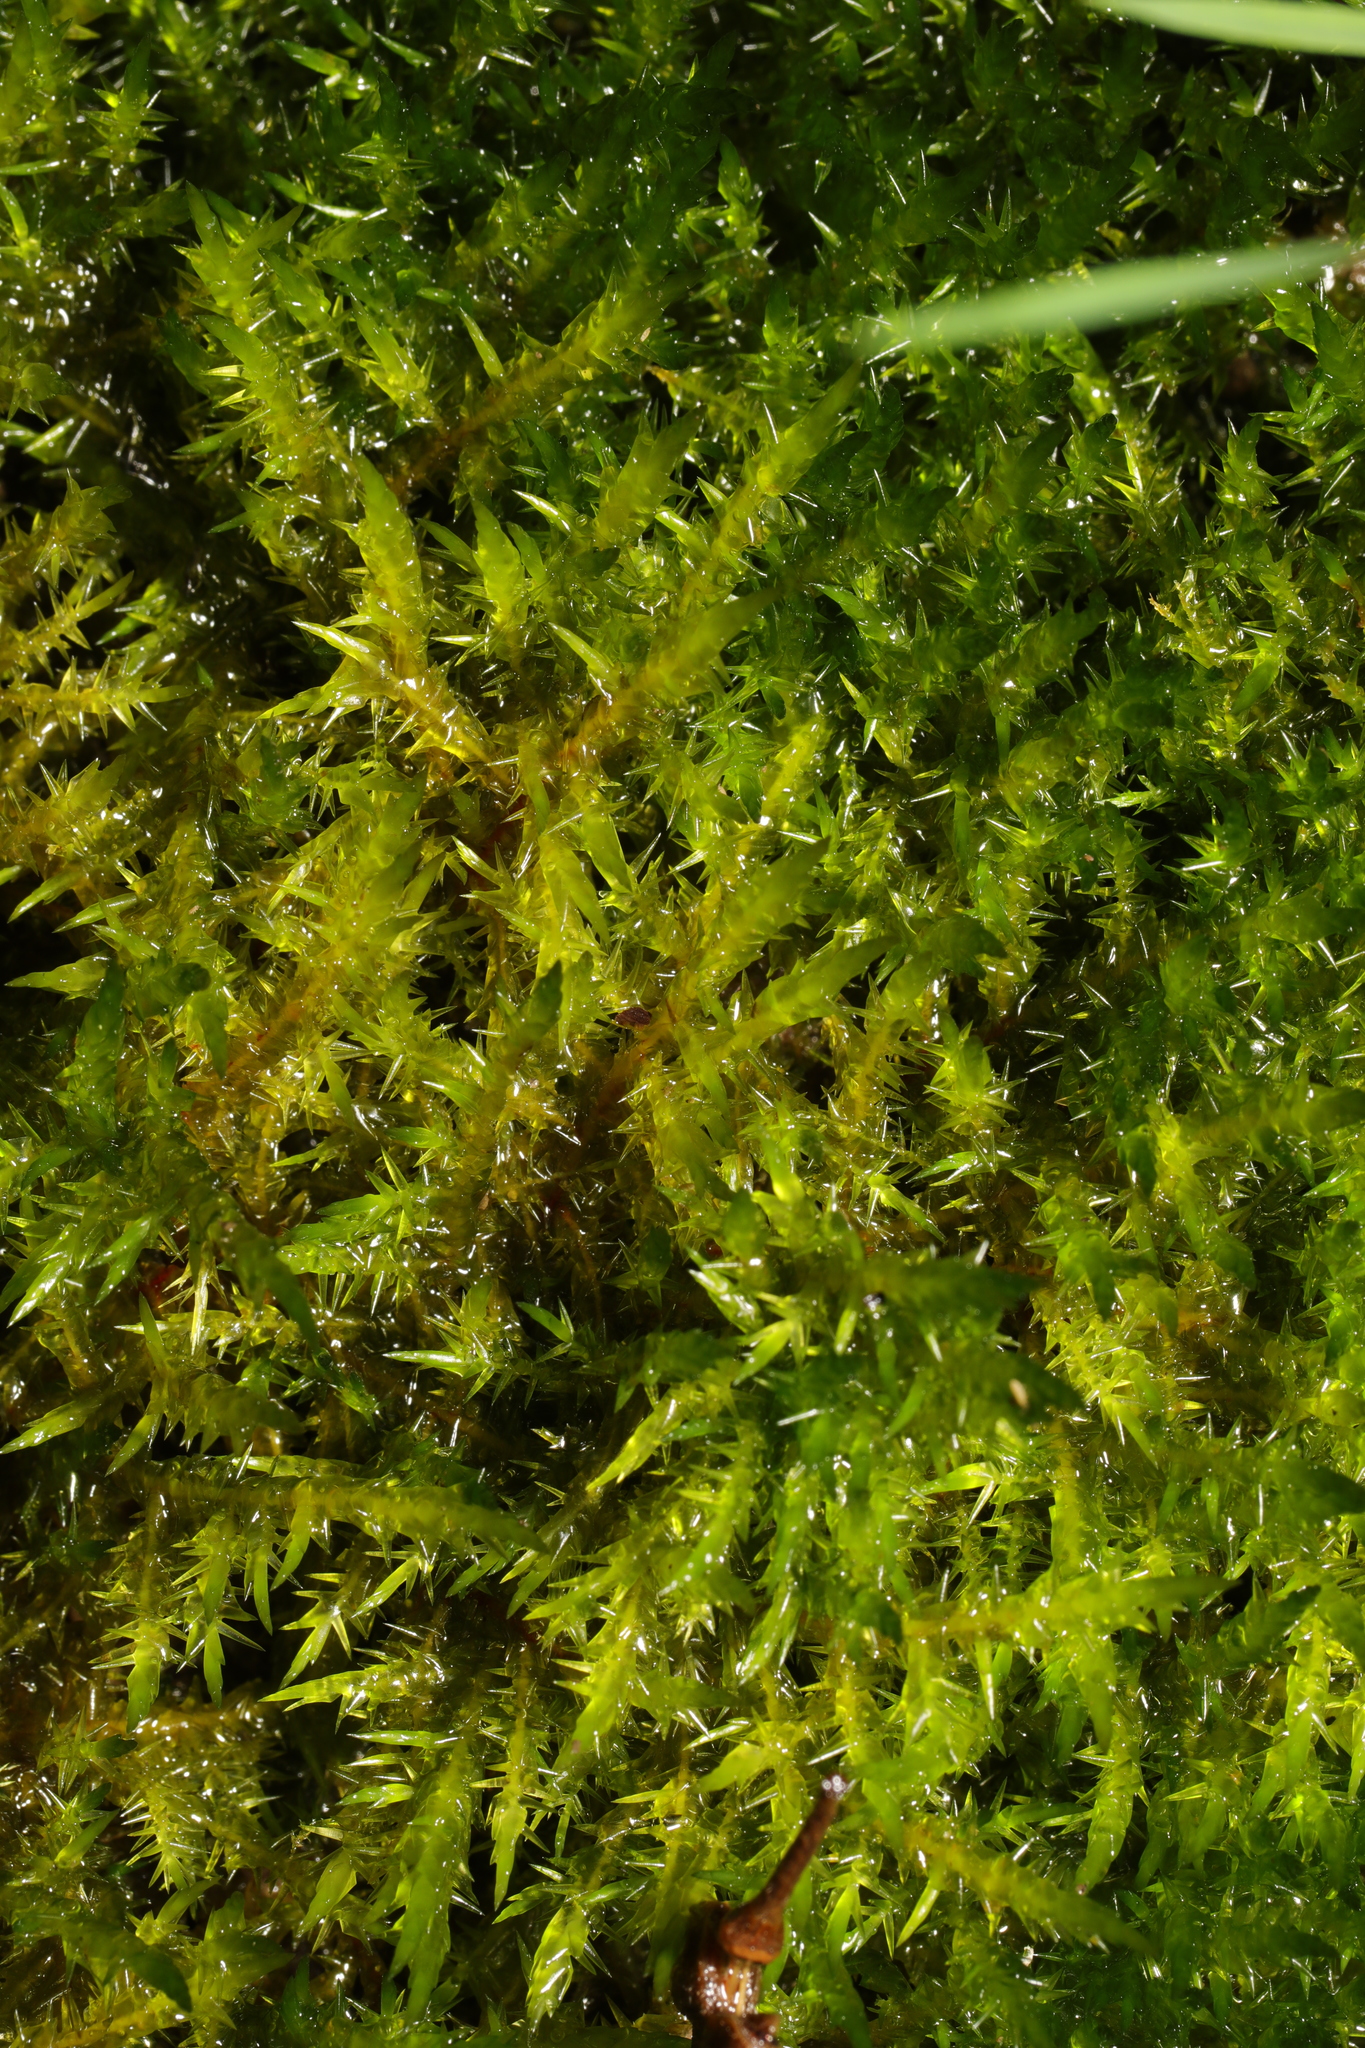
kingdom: Plantae
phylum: Bryophyta
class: Bryopsida
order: Hypnales
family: Pylaisiaceae
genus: Calliergonella
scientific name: Calliergonella cuspidata
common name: Common large wetland moss
